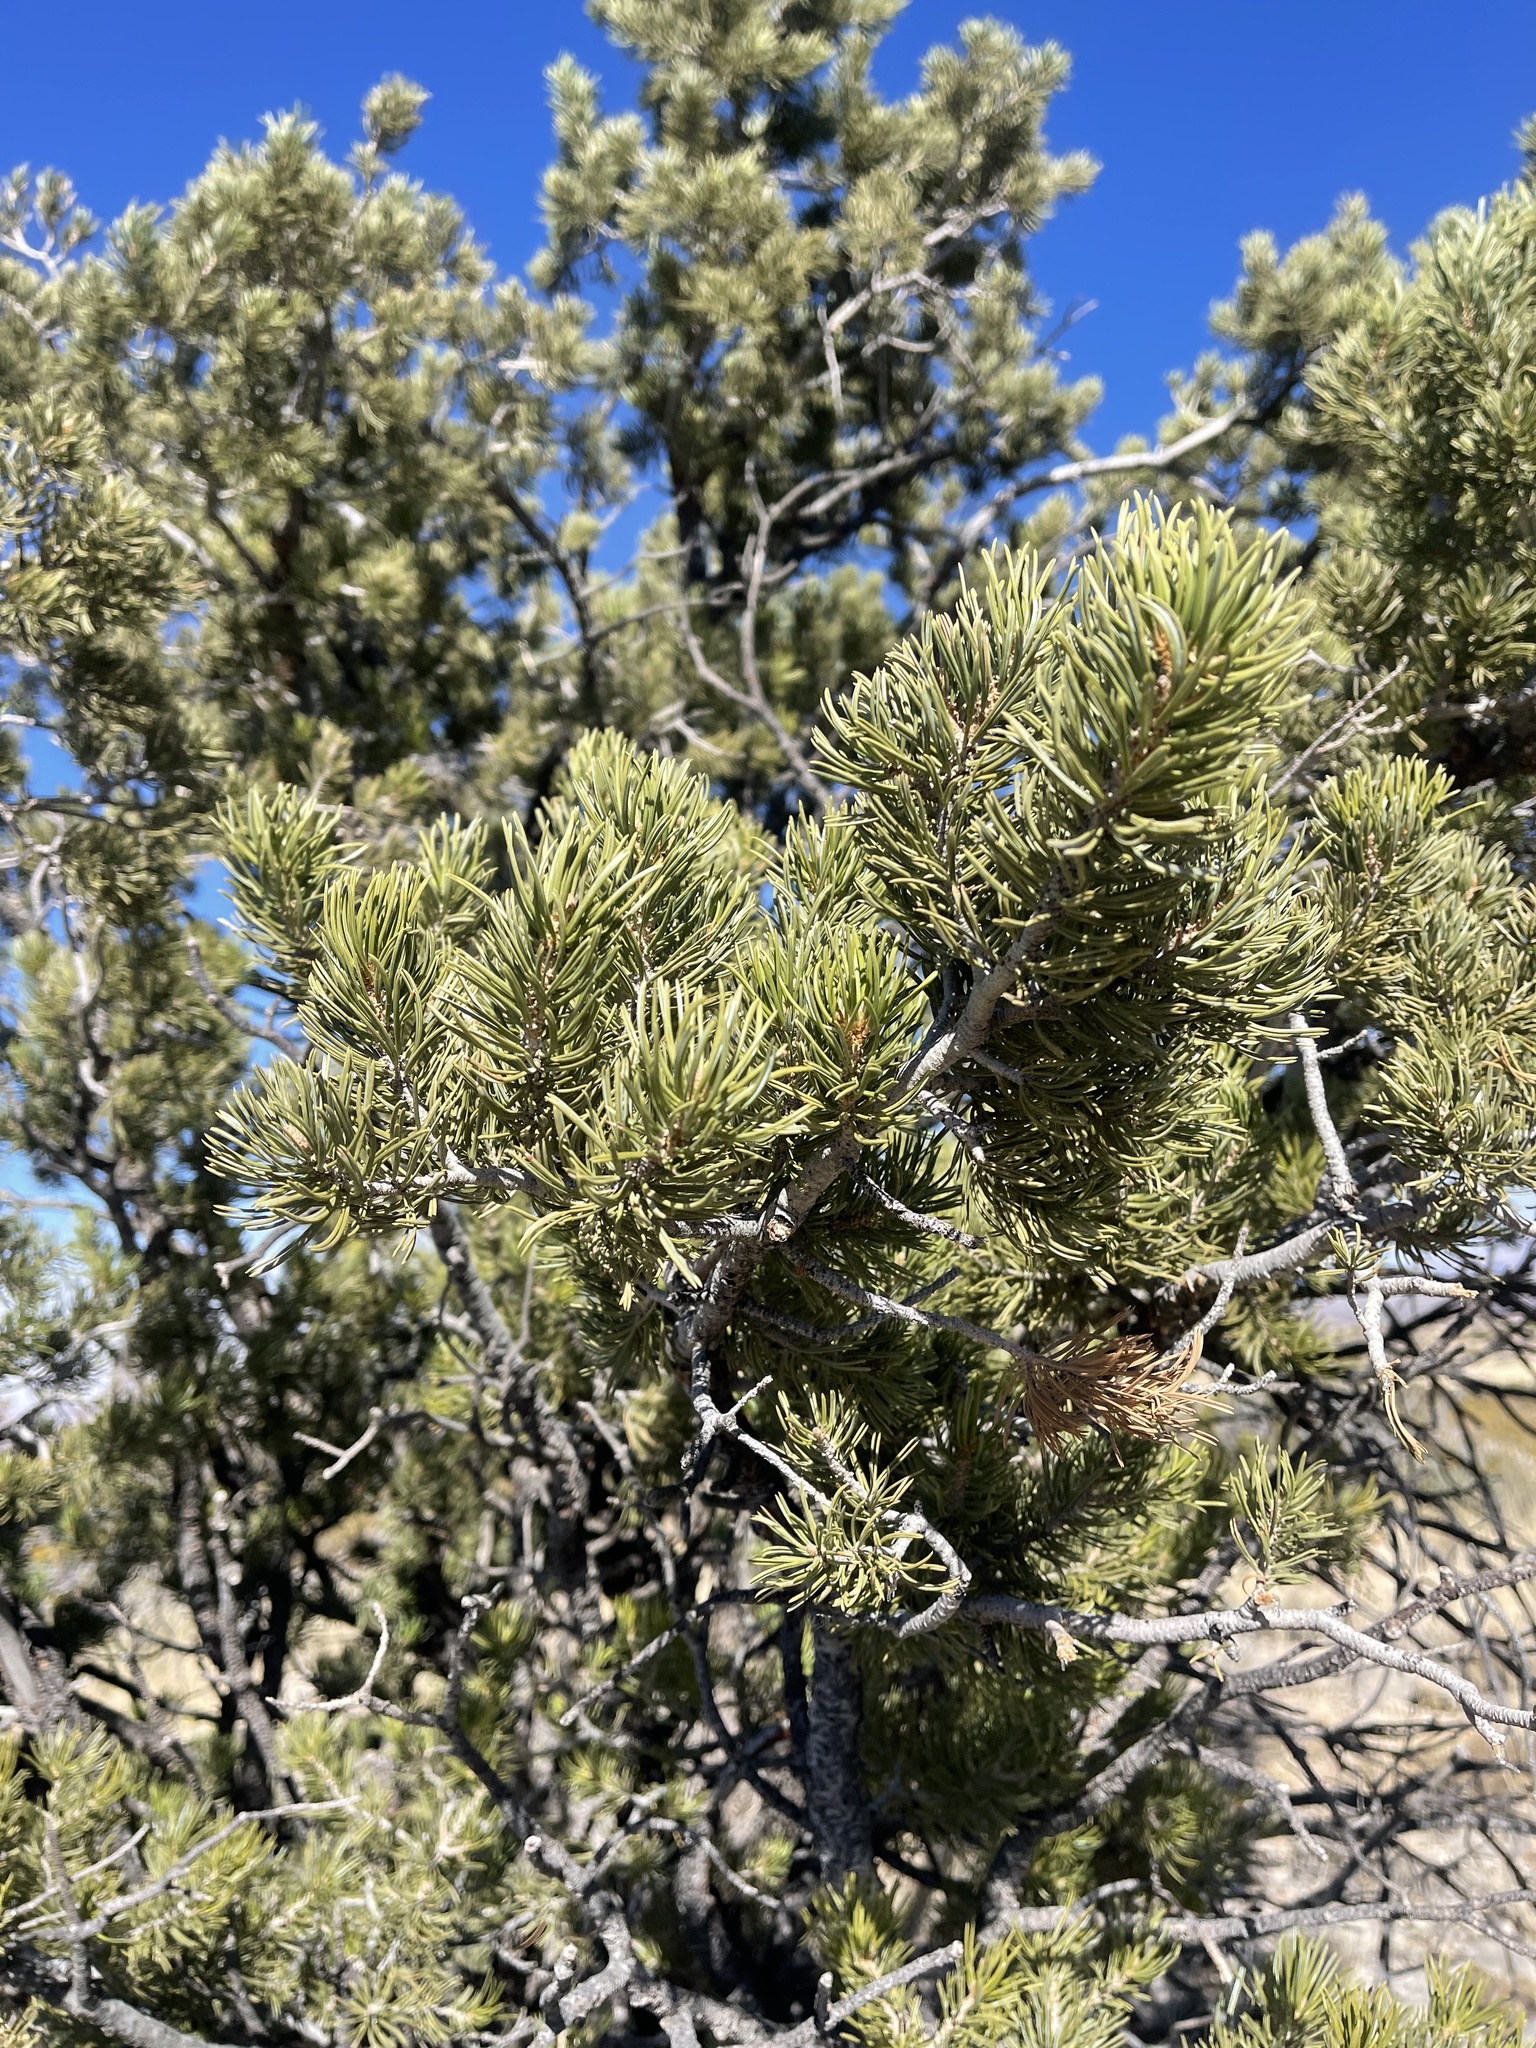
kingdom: Plantae
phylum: Tracheophyta
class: Pinopsida
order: Pinales
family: Pinaceae
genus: Pinus
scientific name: Pinus edulis
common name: Colorado pinyon
